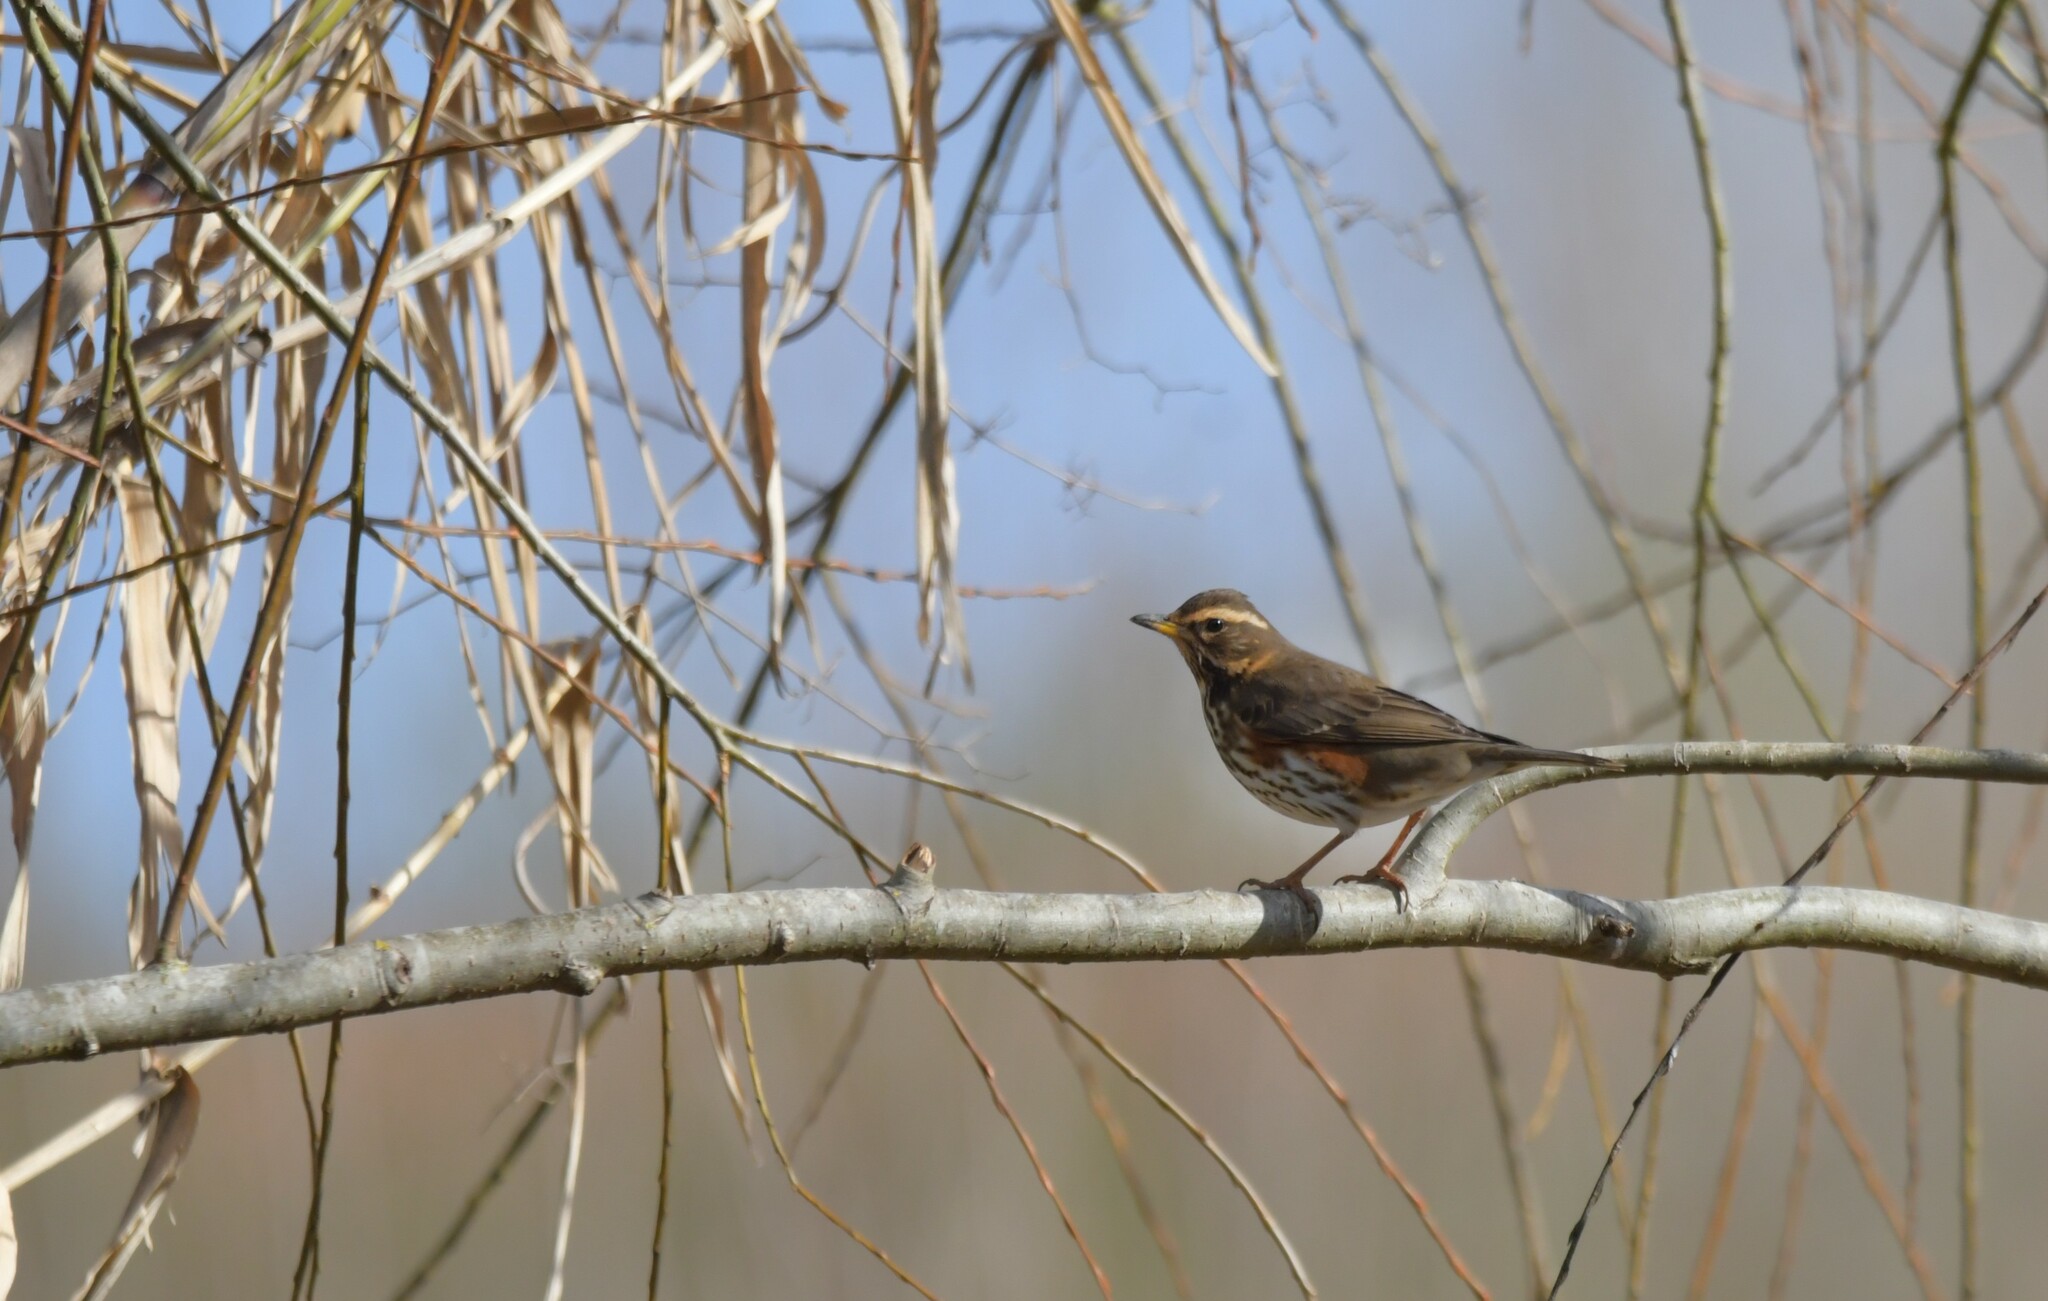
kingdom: Animalia
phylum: Chordata
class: Aves
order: Passeriformes
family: Turdidae
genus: Turdus
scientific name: Turdus iliacus
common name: Redwing
